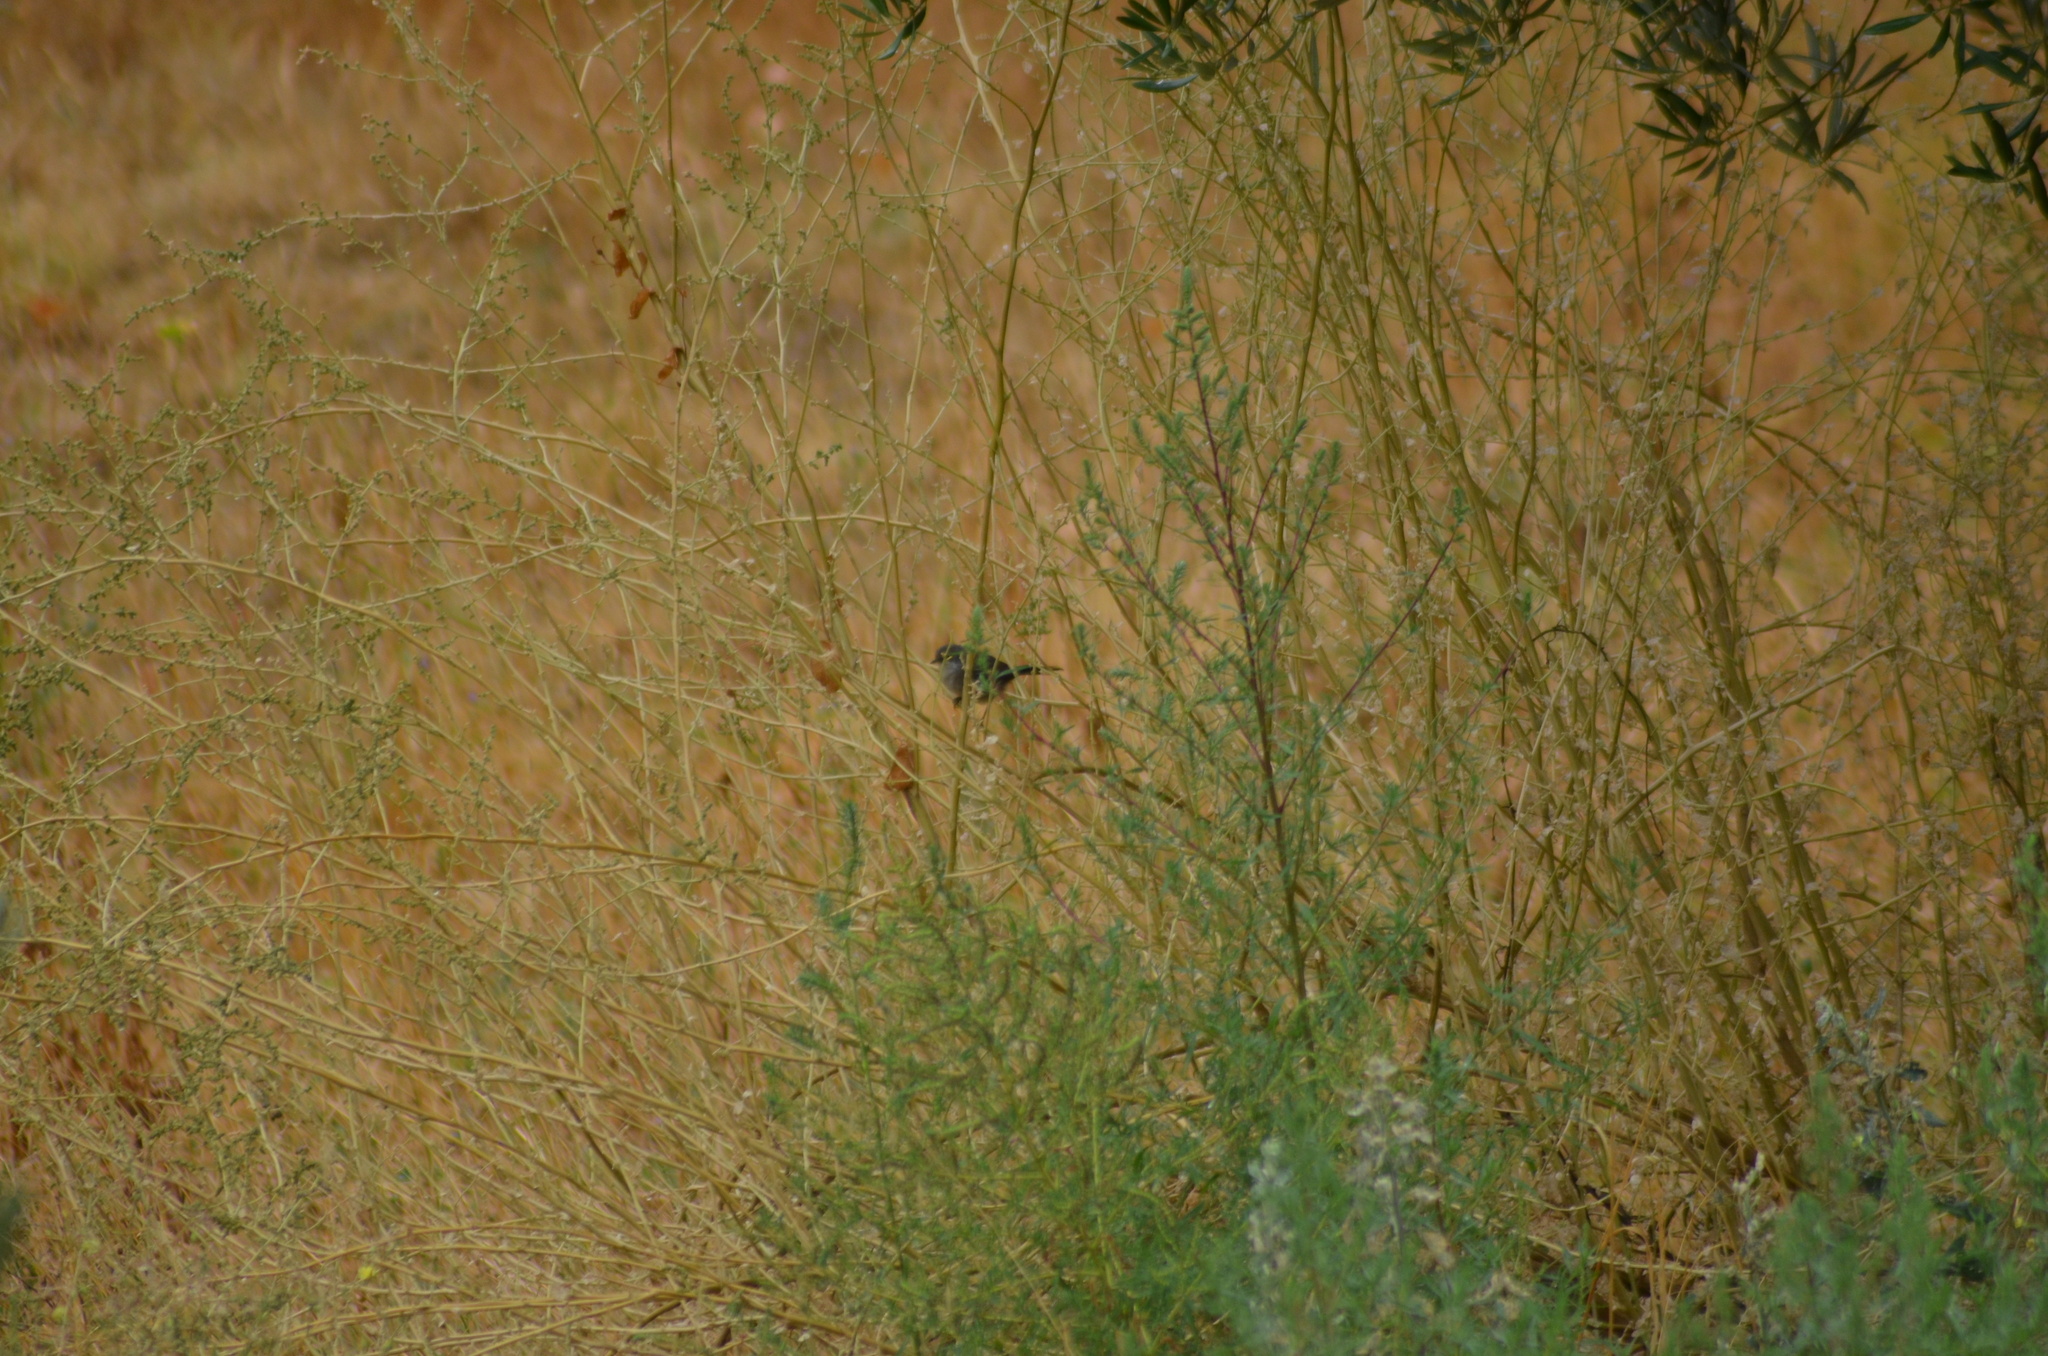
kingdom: Animalia
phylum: Chordata
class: Aves
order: Passeriformes
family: Sylviidae
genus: Curruca
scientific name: Curruca melanocephala
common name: Sardinian warbler
